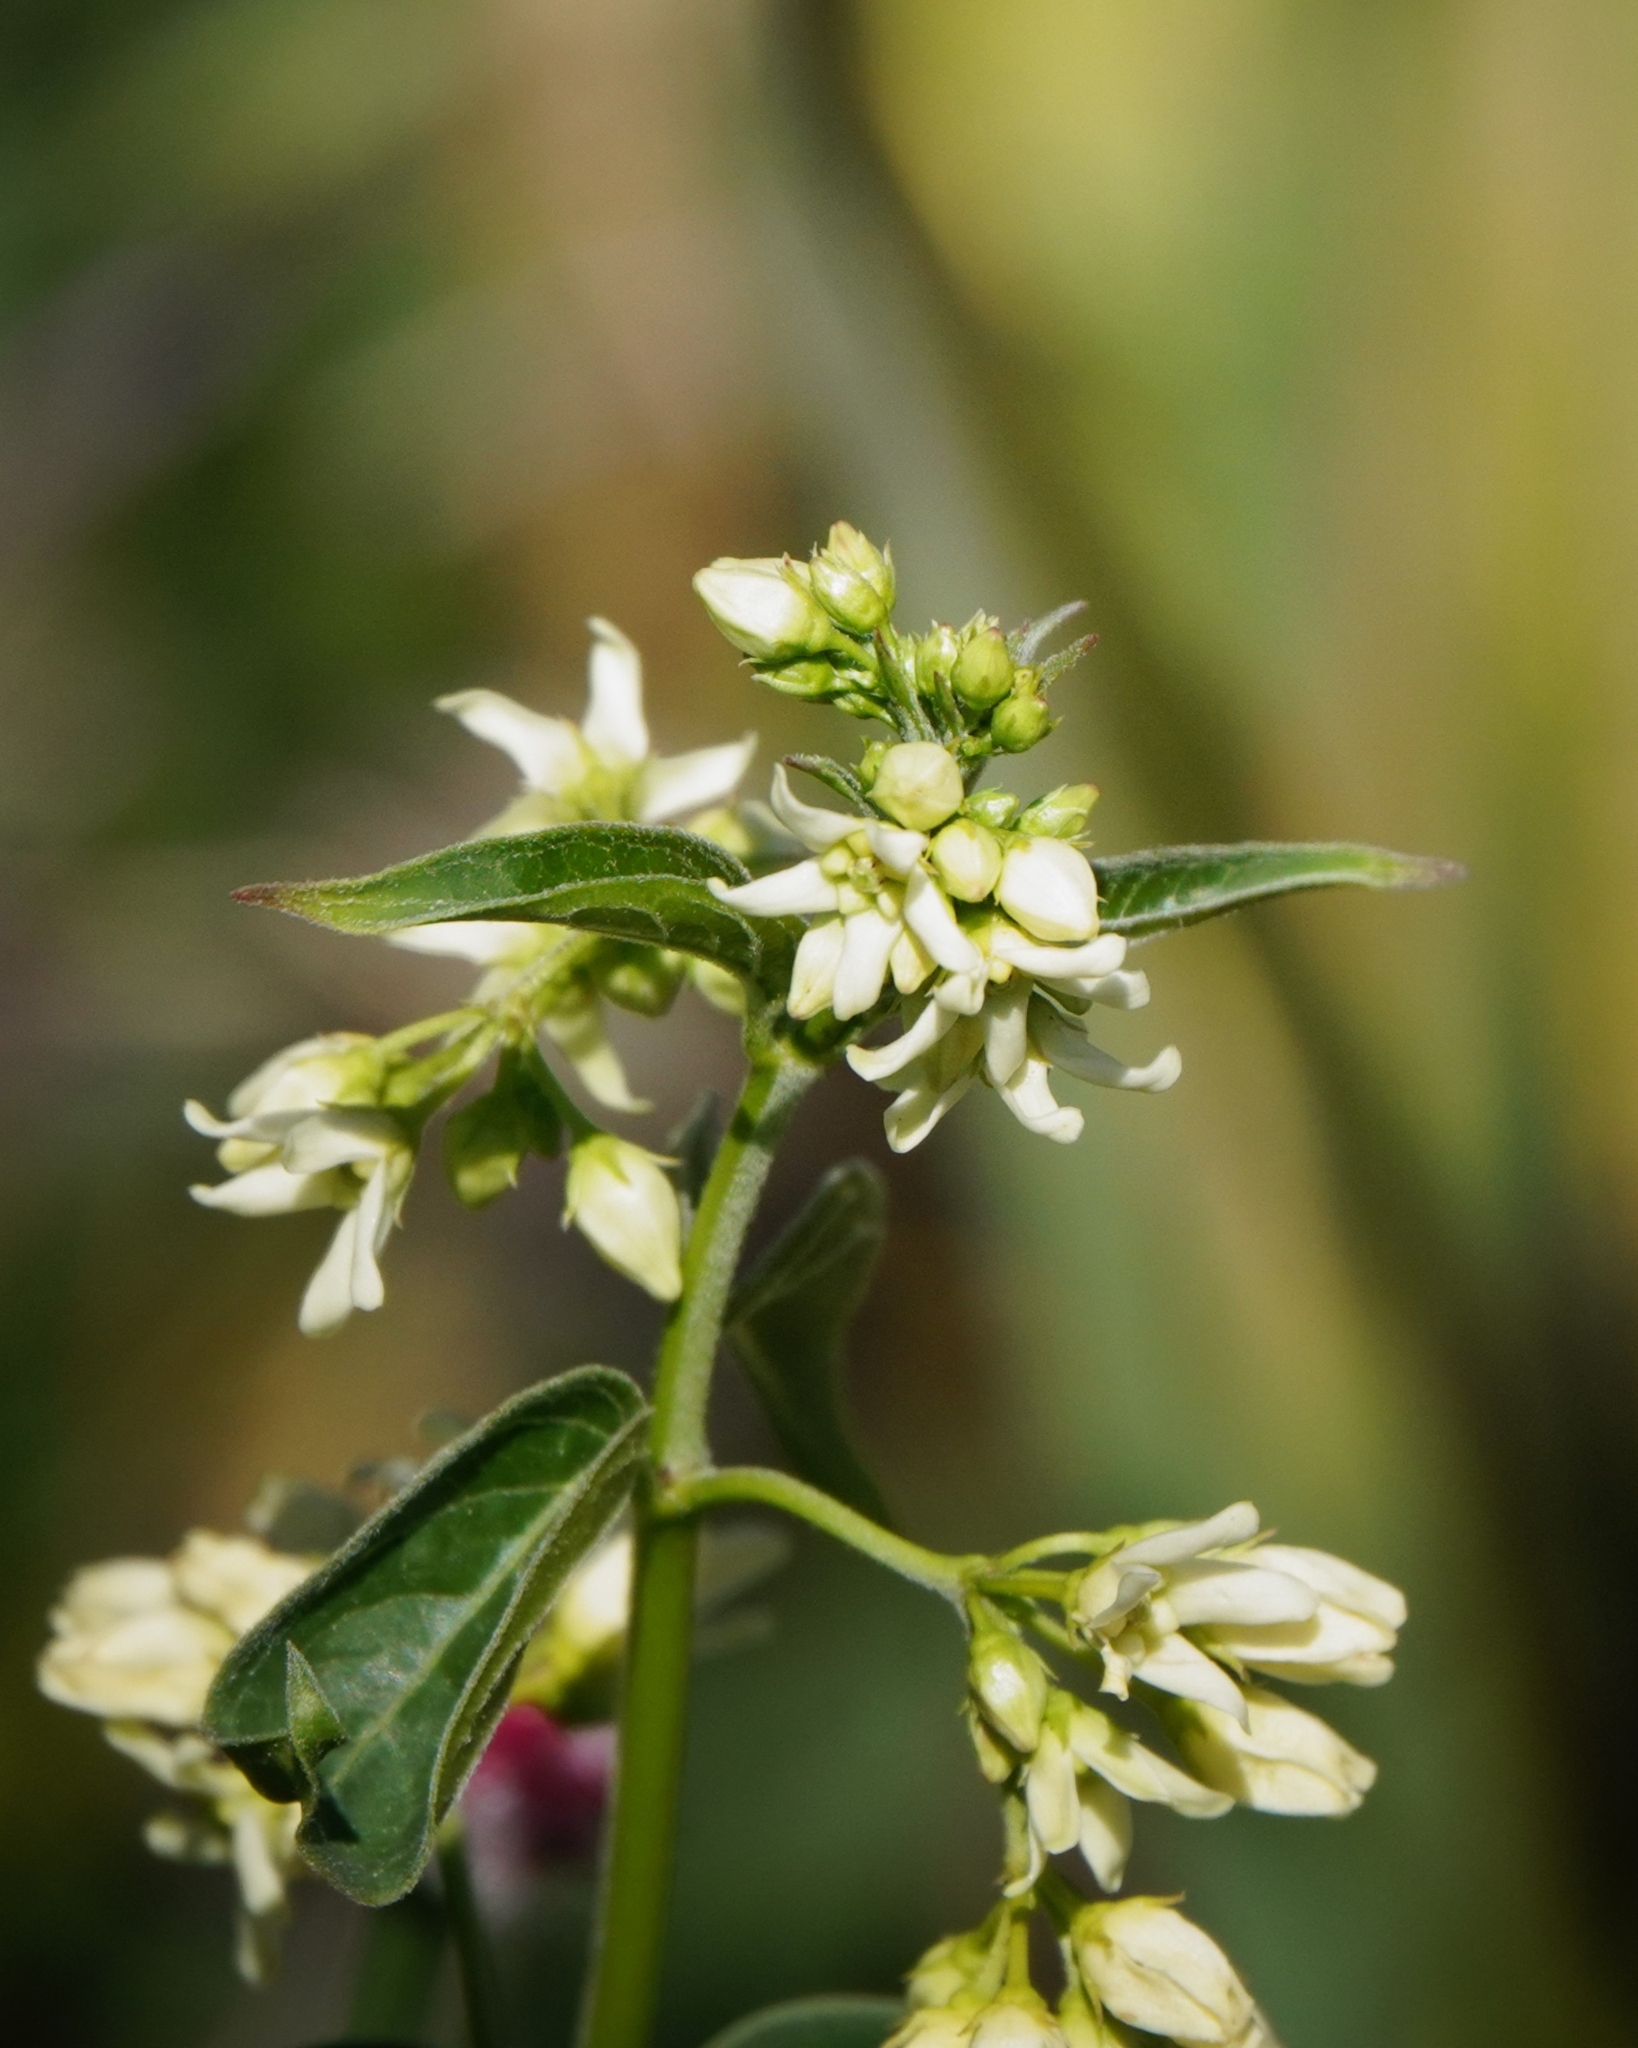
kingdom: Plantae
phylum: Tracheophyta
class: Magnoliopsida
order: Gentianales
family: Apocynaceae
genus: Vincetoxicum
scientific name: Vincetoxicum hirundinaria
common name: White swallowwort
